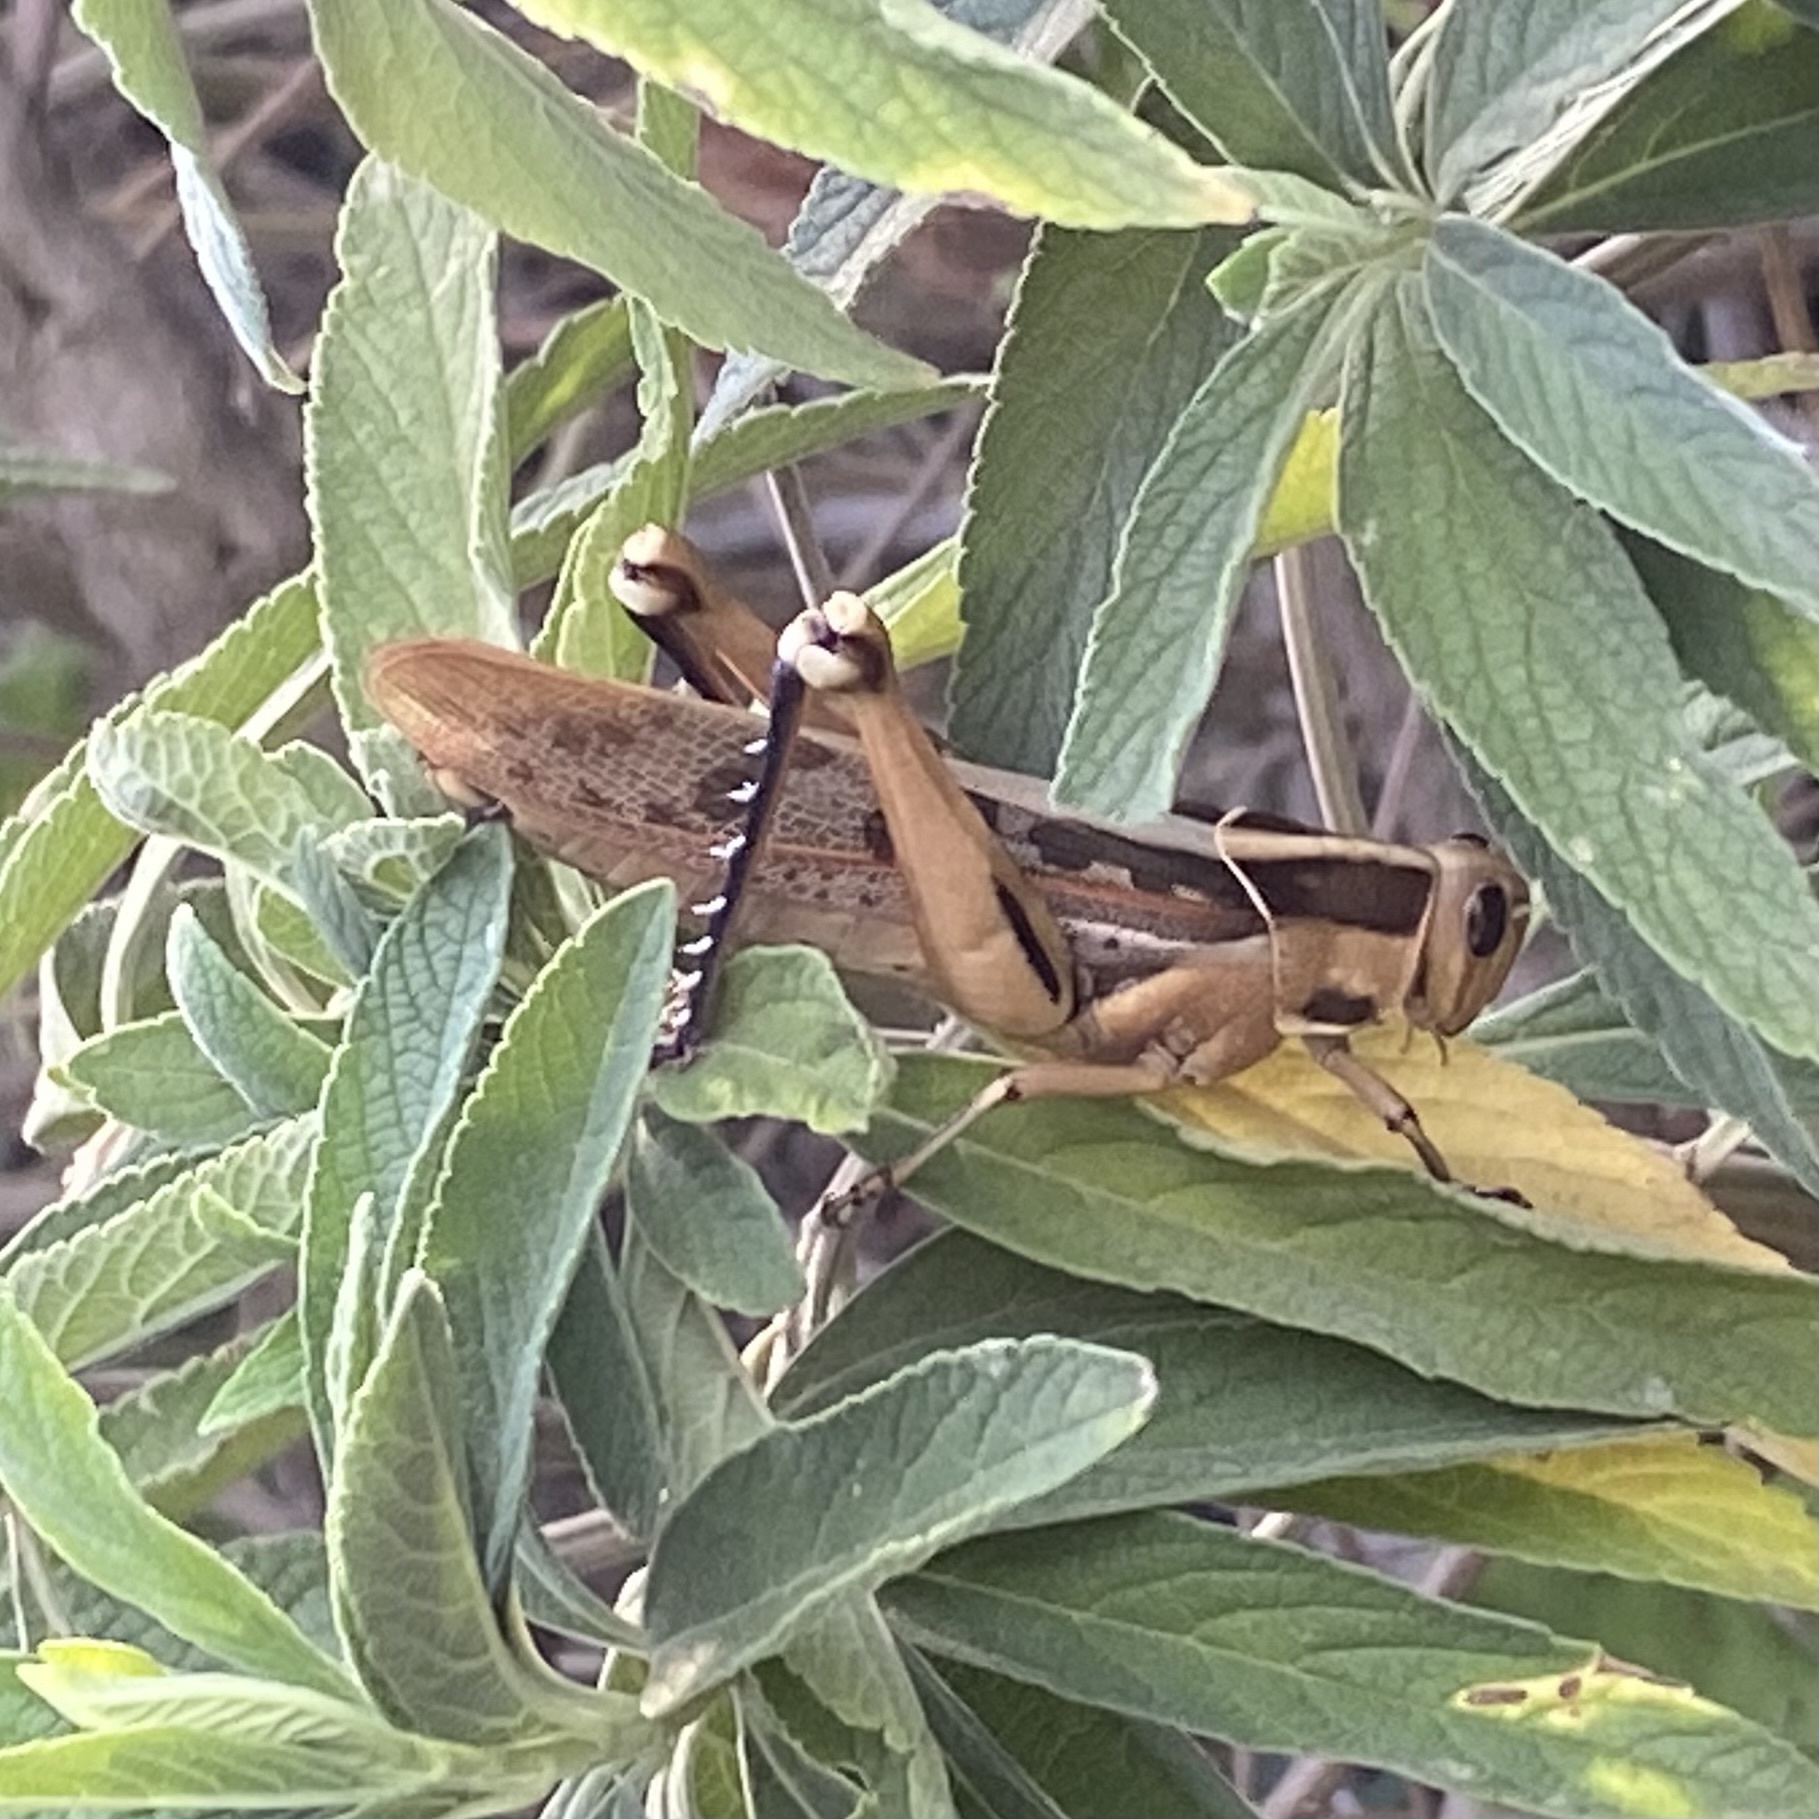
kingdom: Animalia
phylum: Arthropoda
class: Insecta
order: Orthoptera
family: Acrididae
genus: Acanthacris
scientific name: Acanthacris ruficornis
